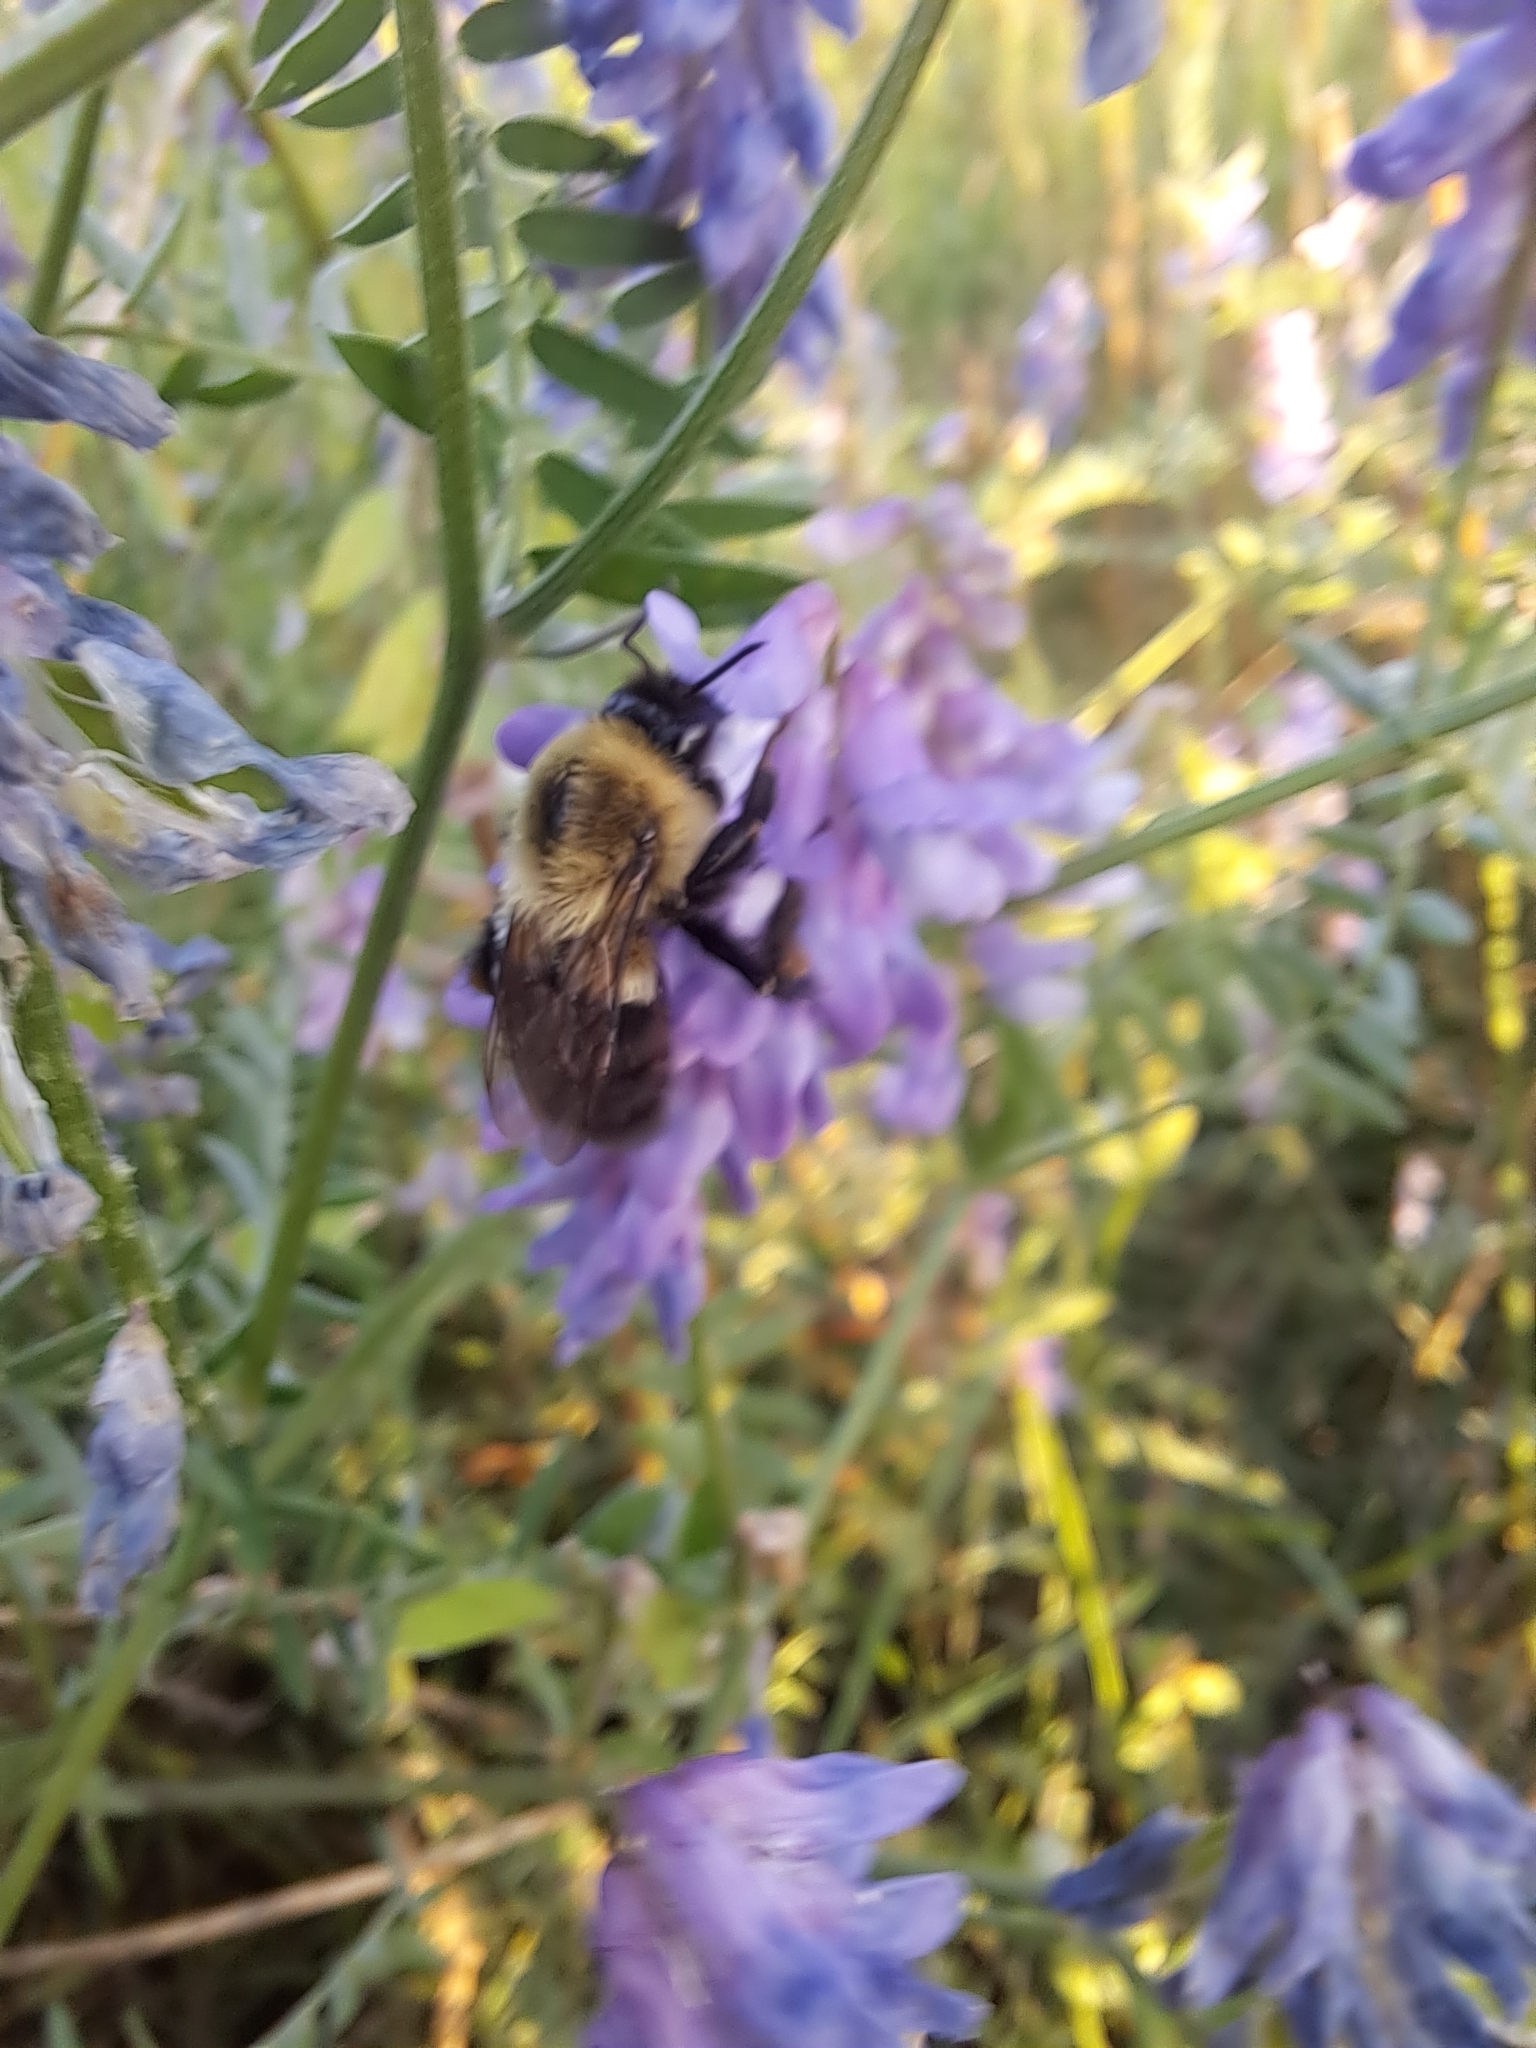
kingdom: Animalia
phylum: Arthropoda
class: Insecta
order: Hymenoptera
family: Apidae
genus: Bombus
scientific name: Bombus impatiens
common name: Common eastern bumble bee
